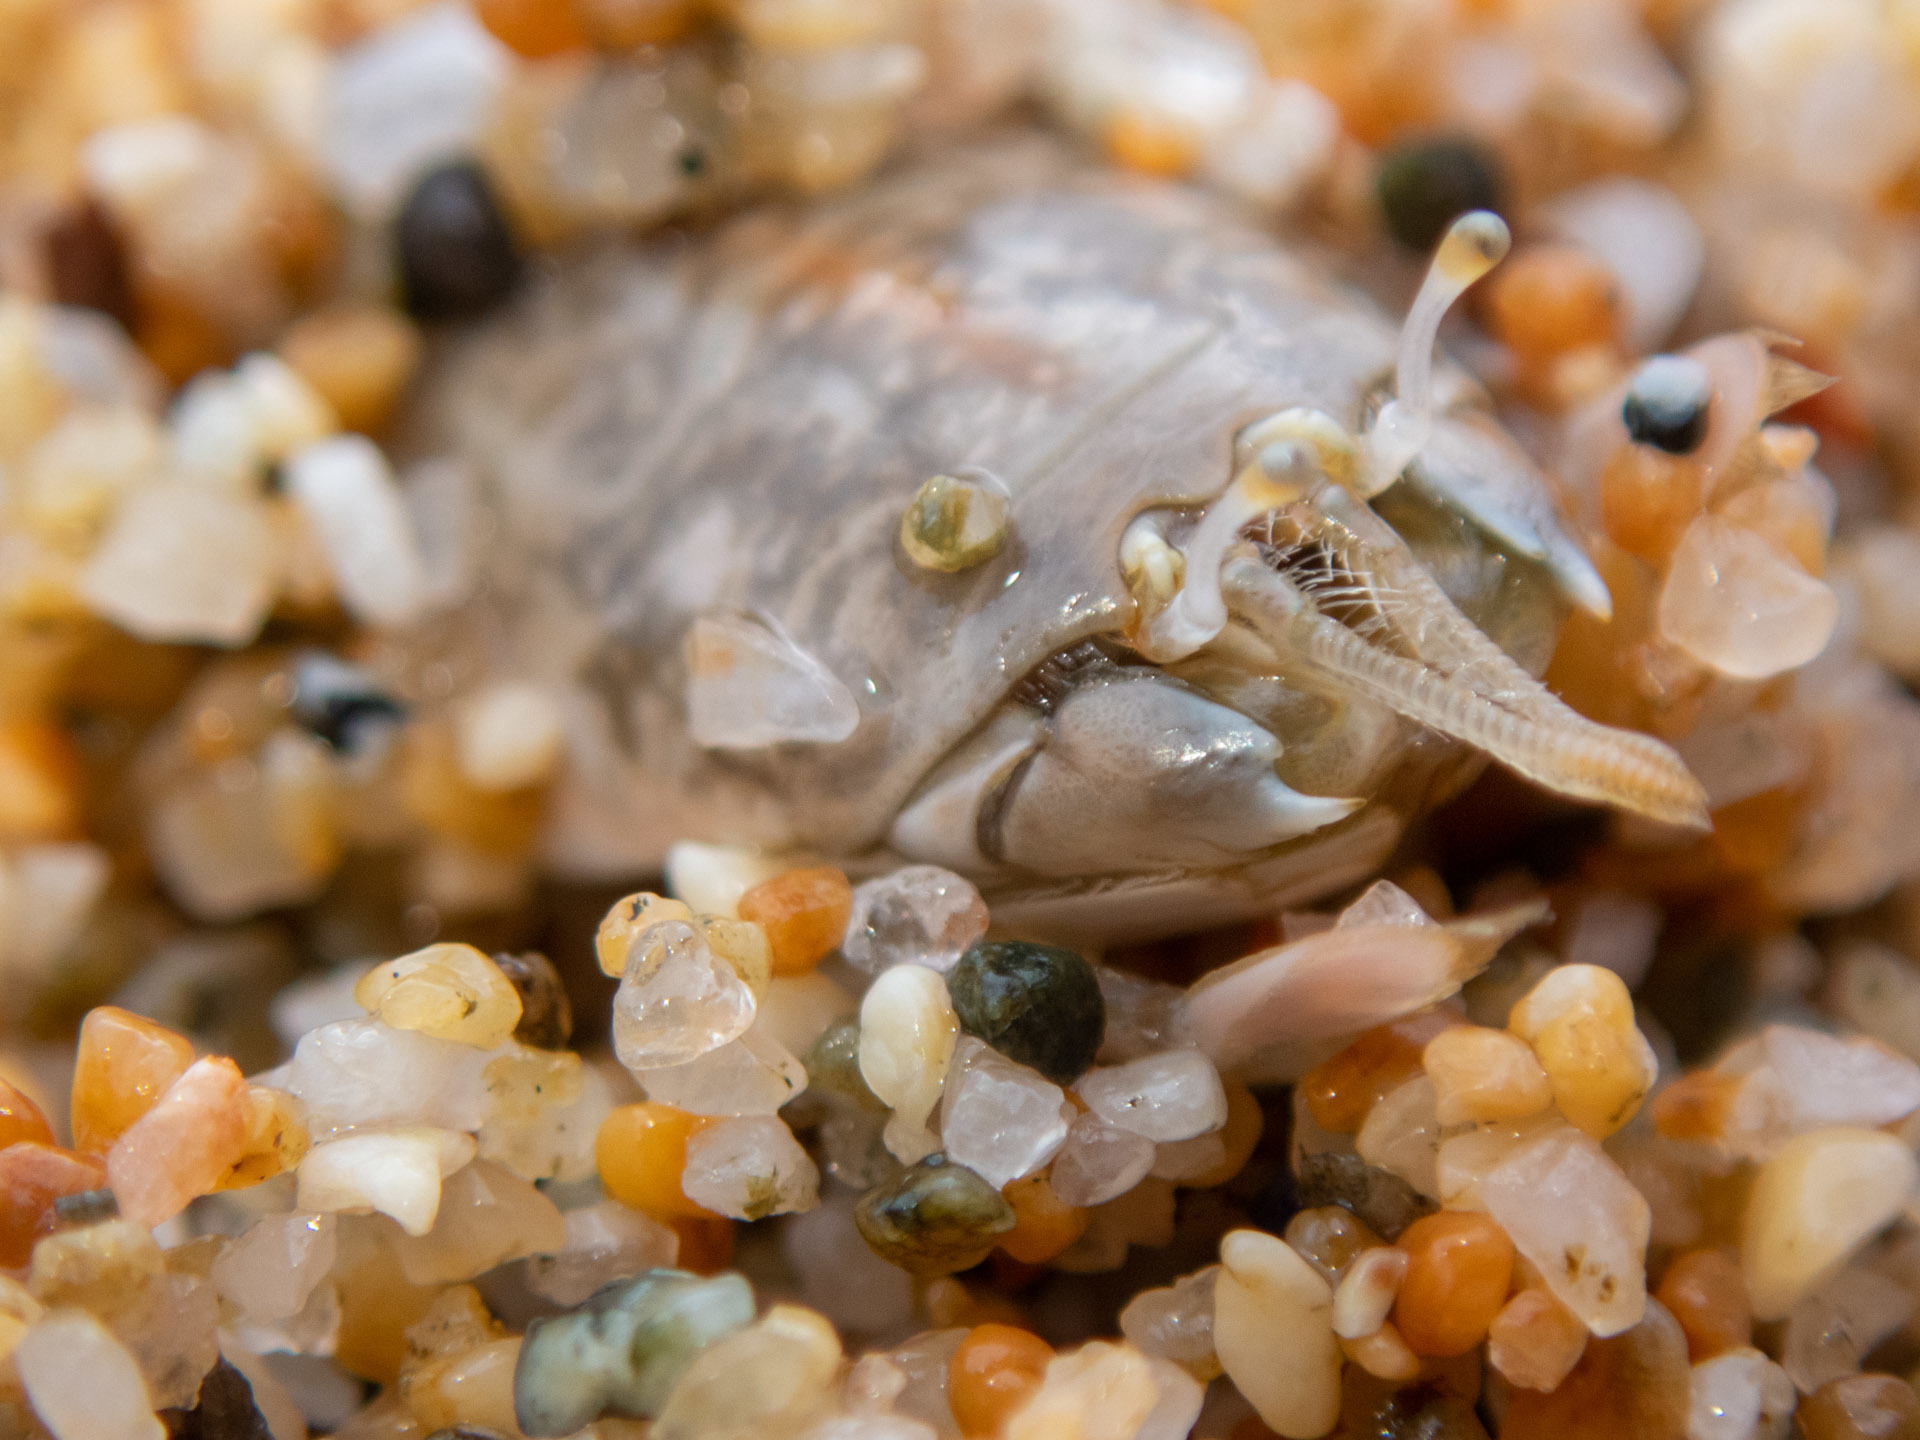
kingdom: Animalia
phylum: Arthropoda
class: Malacostraca
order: Decapoda
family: Hippidae
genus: Emerita
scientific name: Emerita analoga
